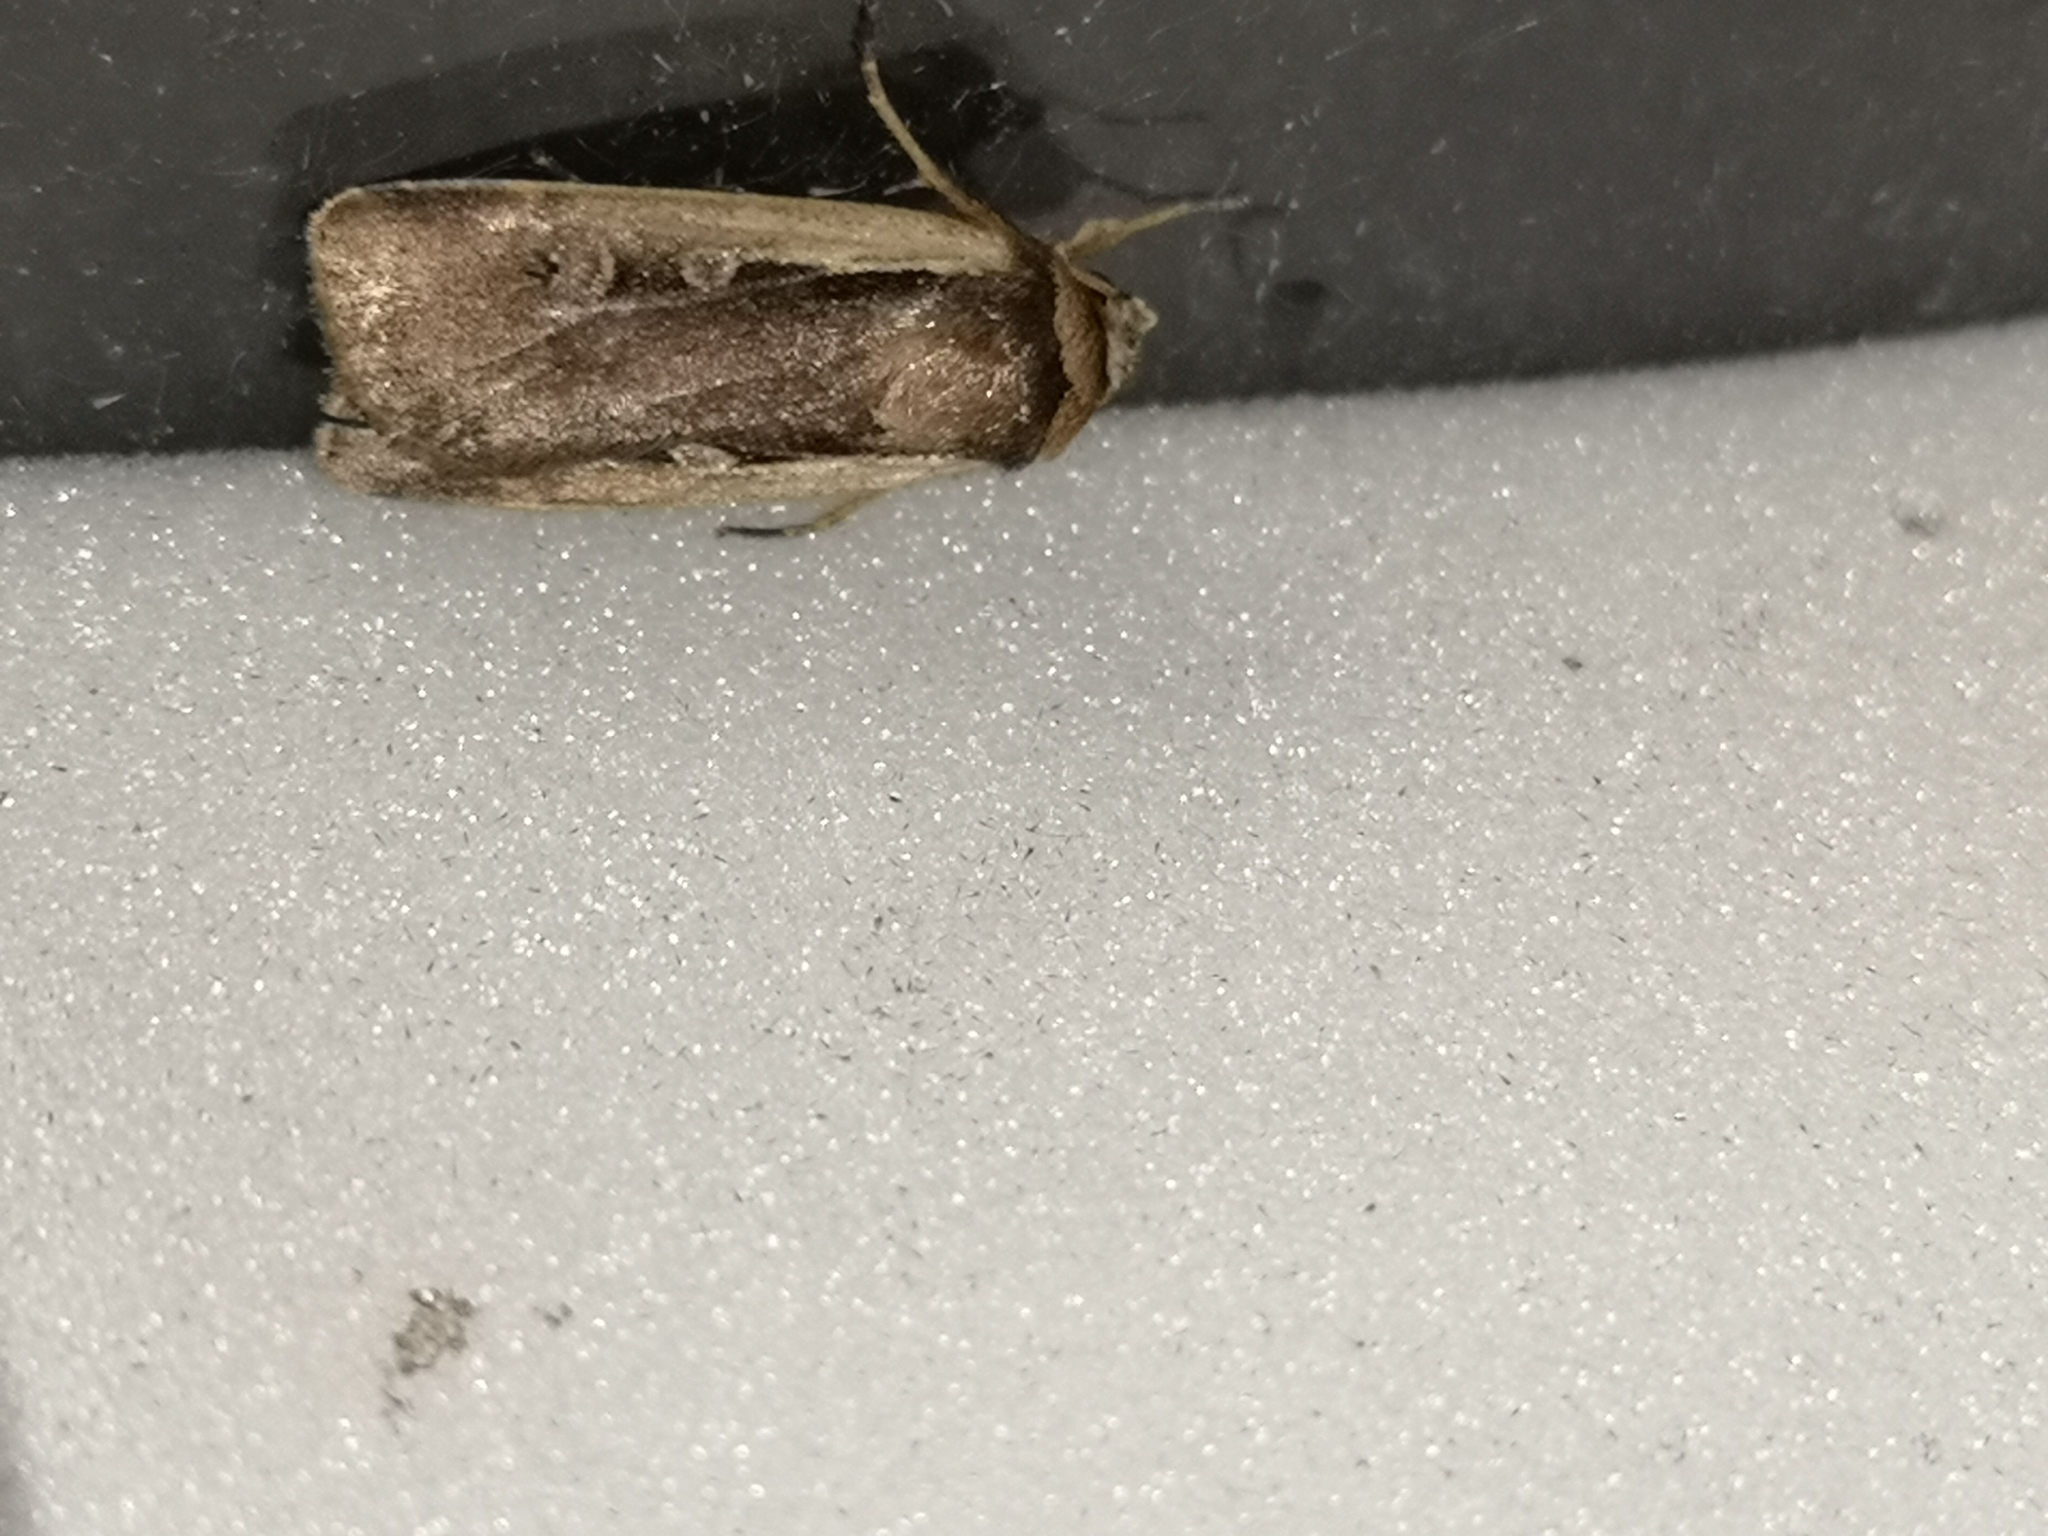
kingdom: Animalia
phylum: Arthropoda
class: Insecta
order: Lepidoptera
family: Noctuidae
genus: Ochropleura
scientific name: Ochropleura plecta
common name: Flame shoulder
